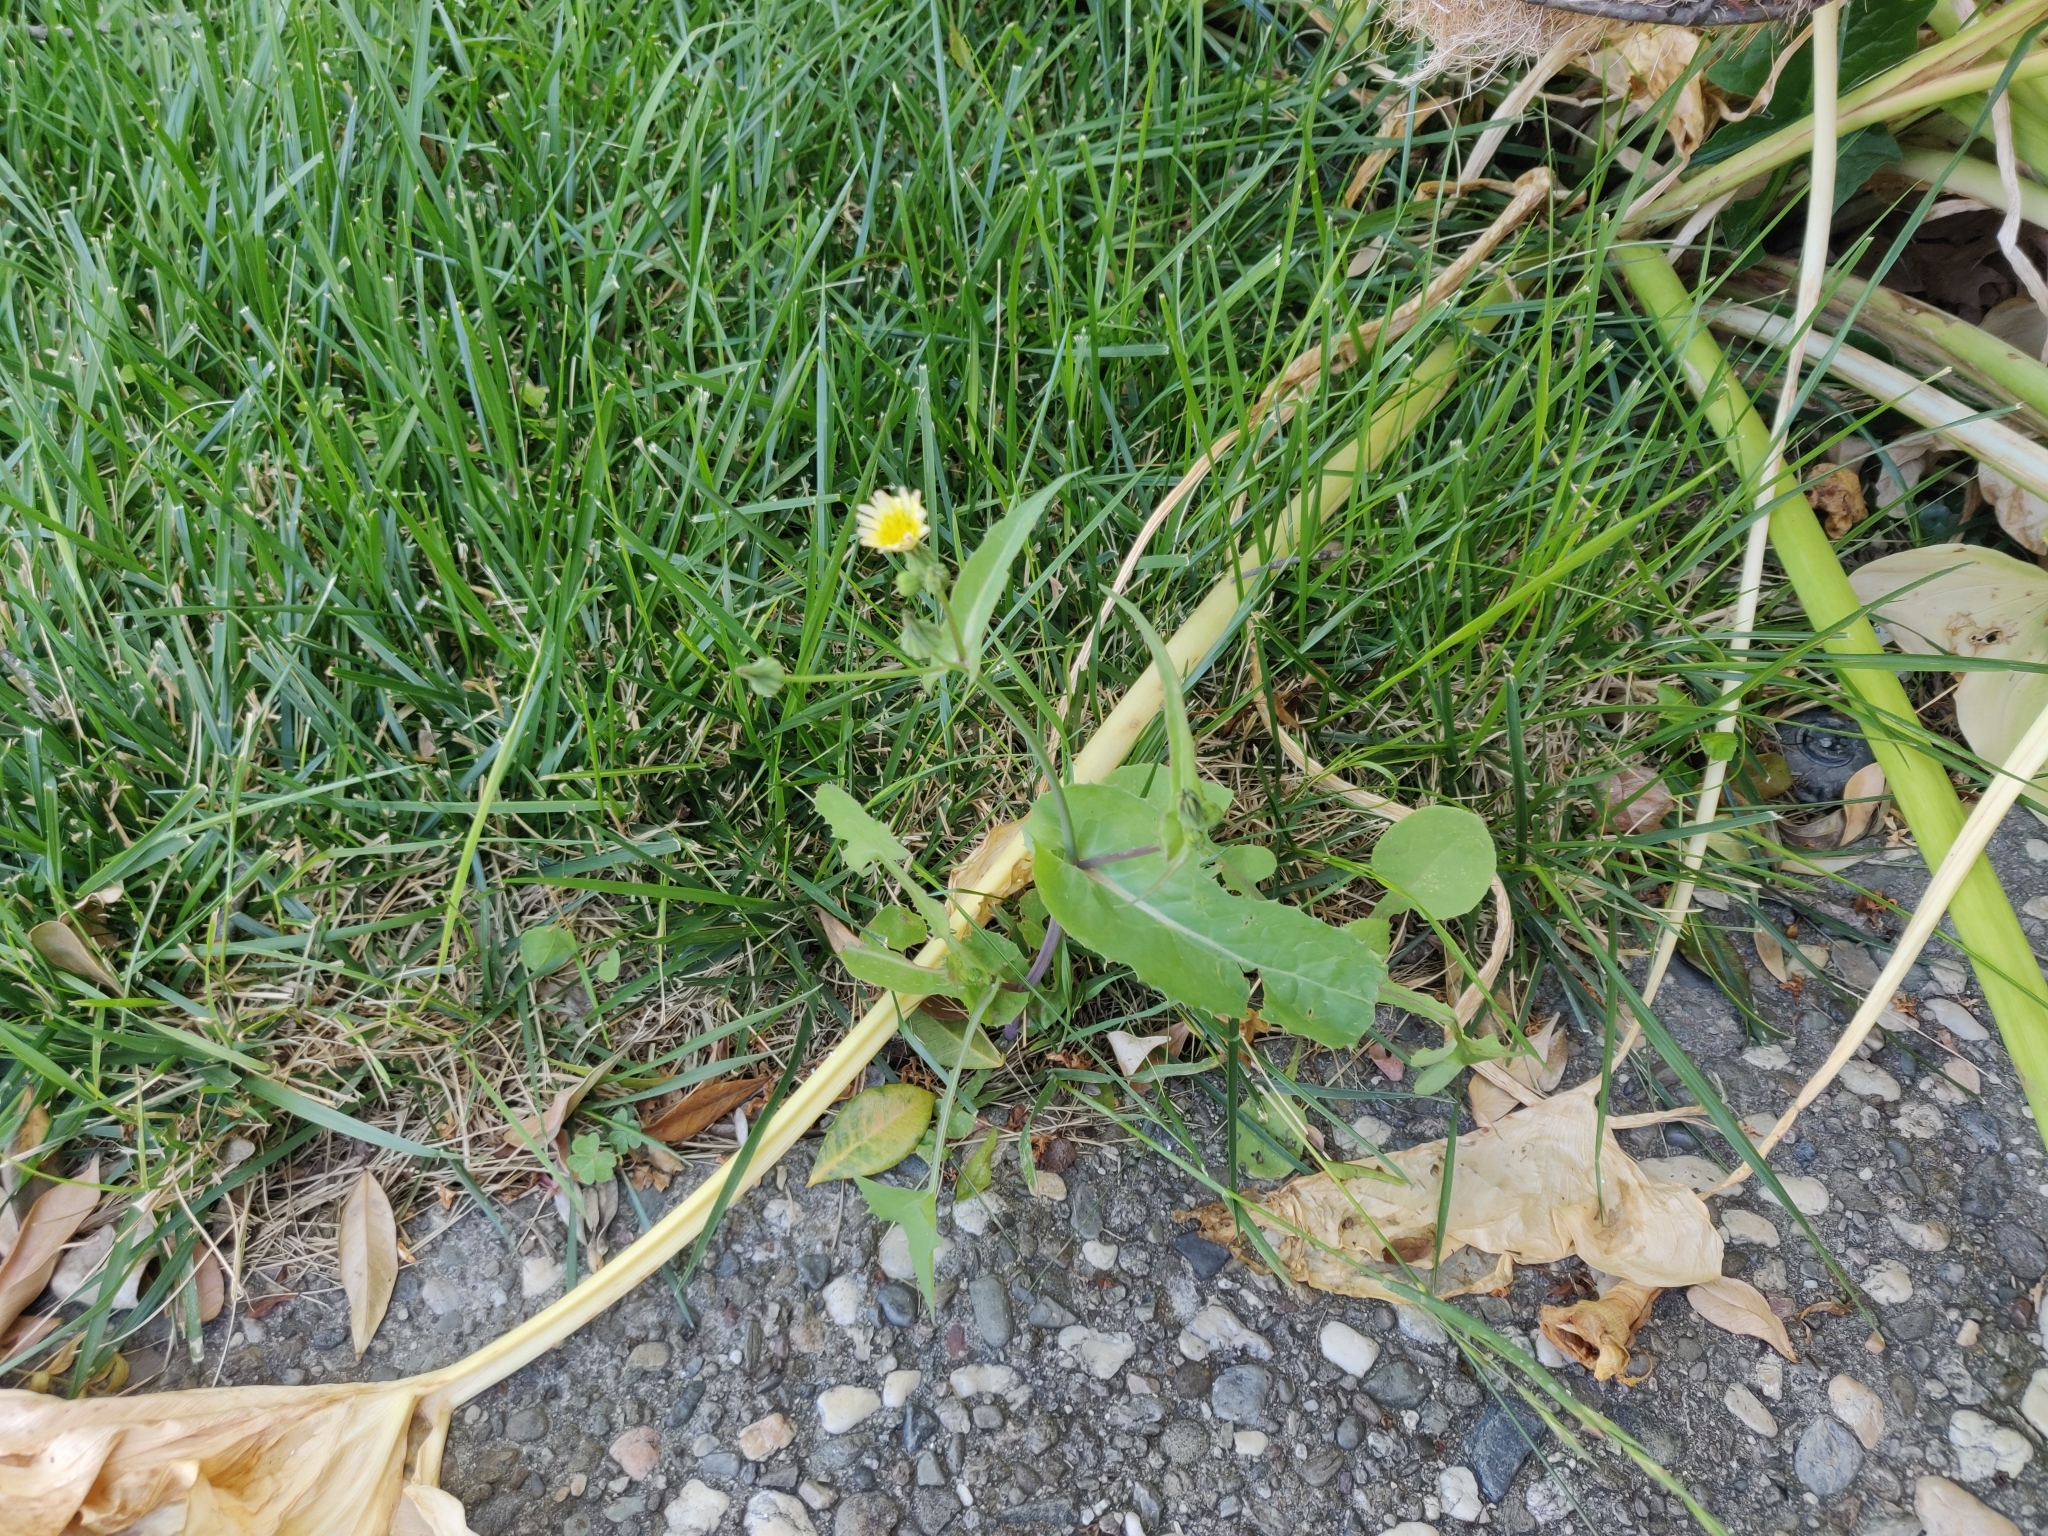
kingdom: Plantae
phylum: Tracheophyta
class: Magnoliopsida
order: Asterales
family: Asteraceae
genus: Sonchus
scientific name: Sonchus oleraceus
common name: Common sowthistle
